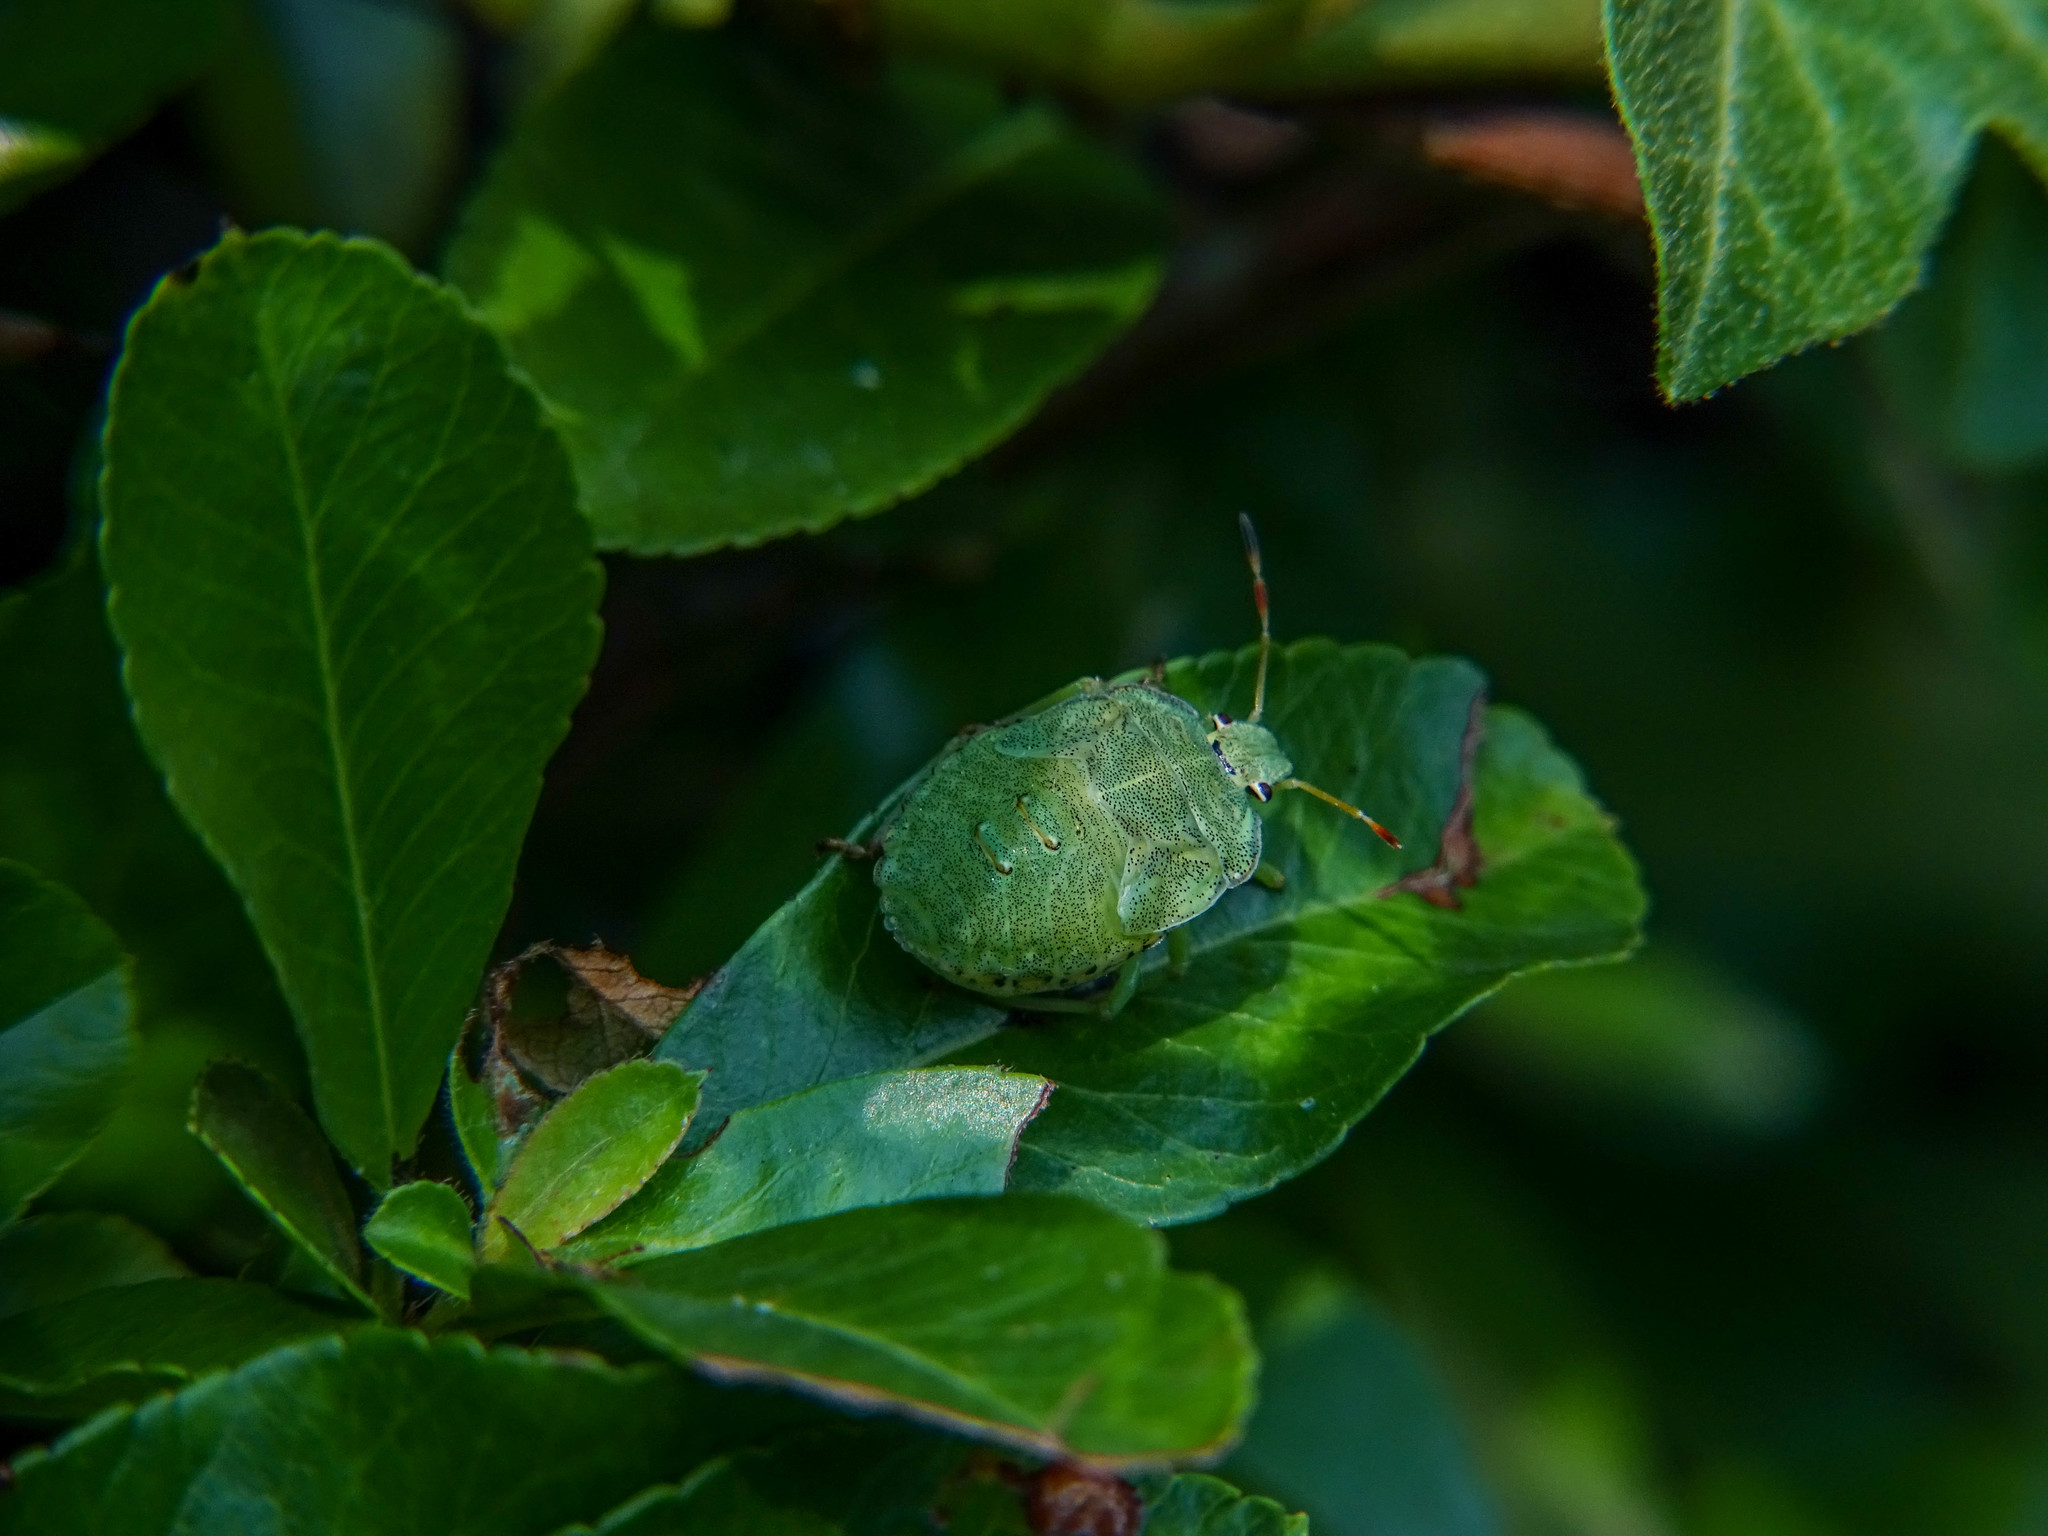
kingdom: Animalia
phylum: Arthropoda
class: Insecta
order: Hemiptera
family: Pentatomidae
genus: Palomena
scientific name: Palomena prasina
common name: Green shieldbug
